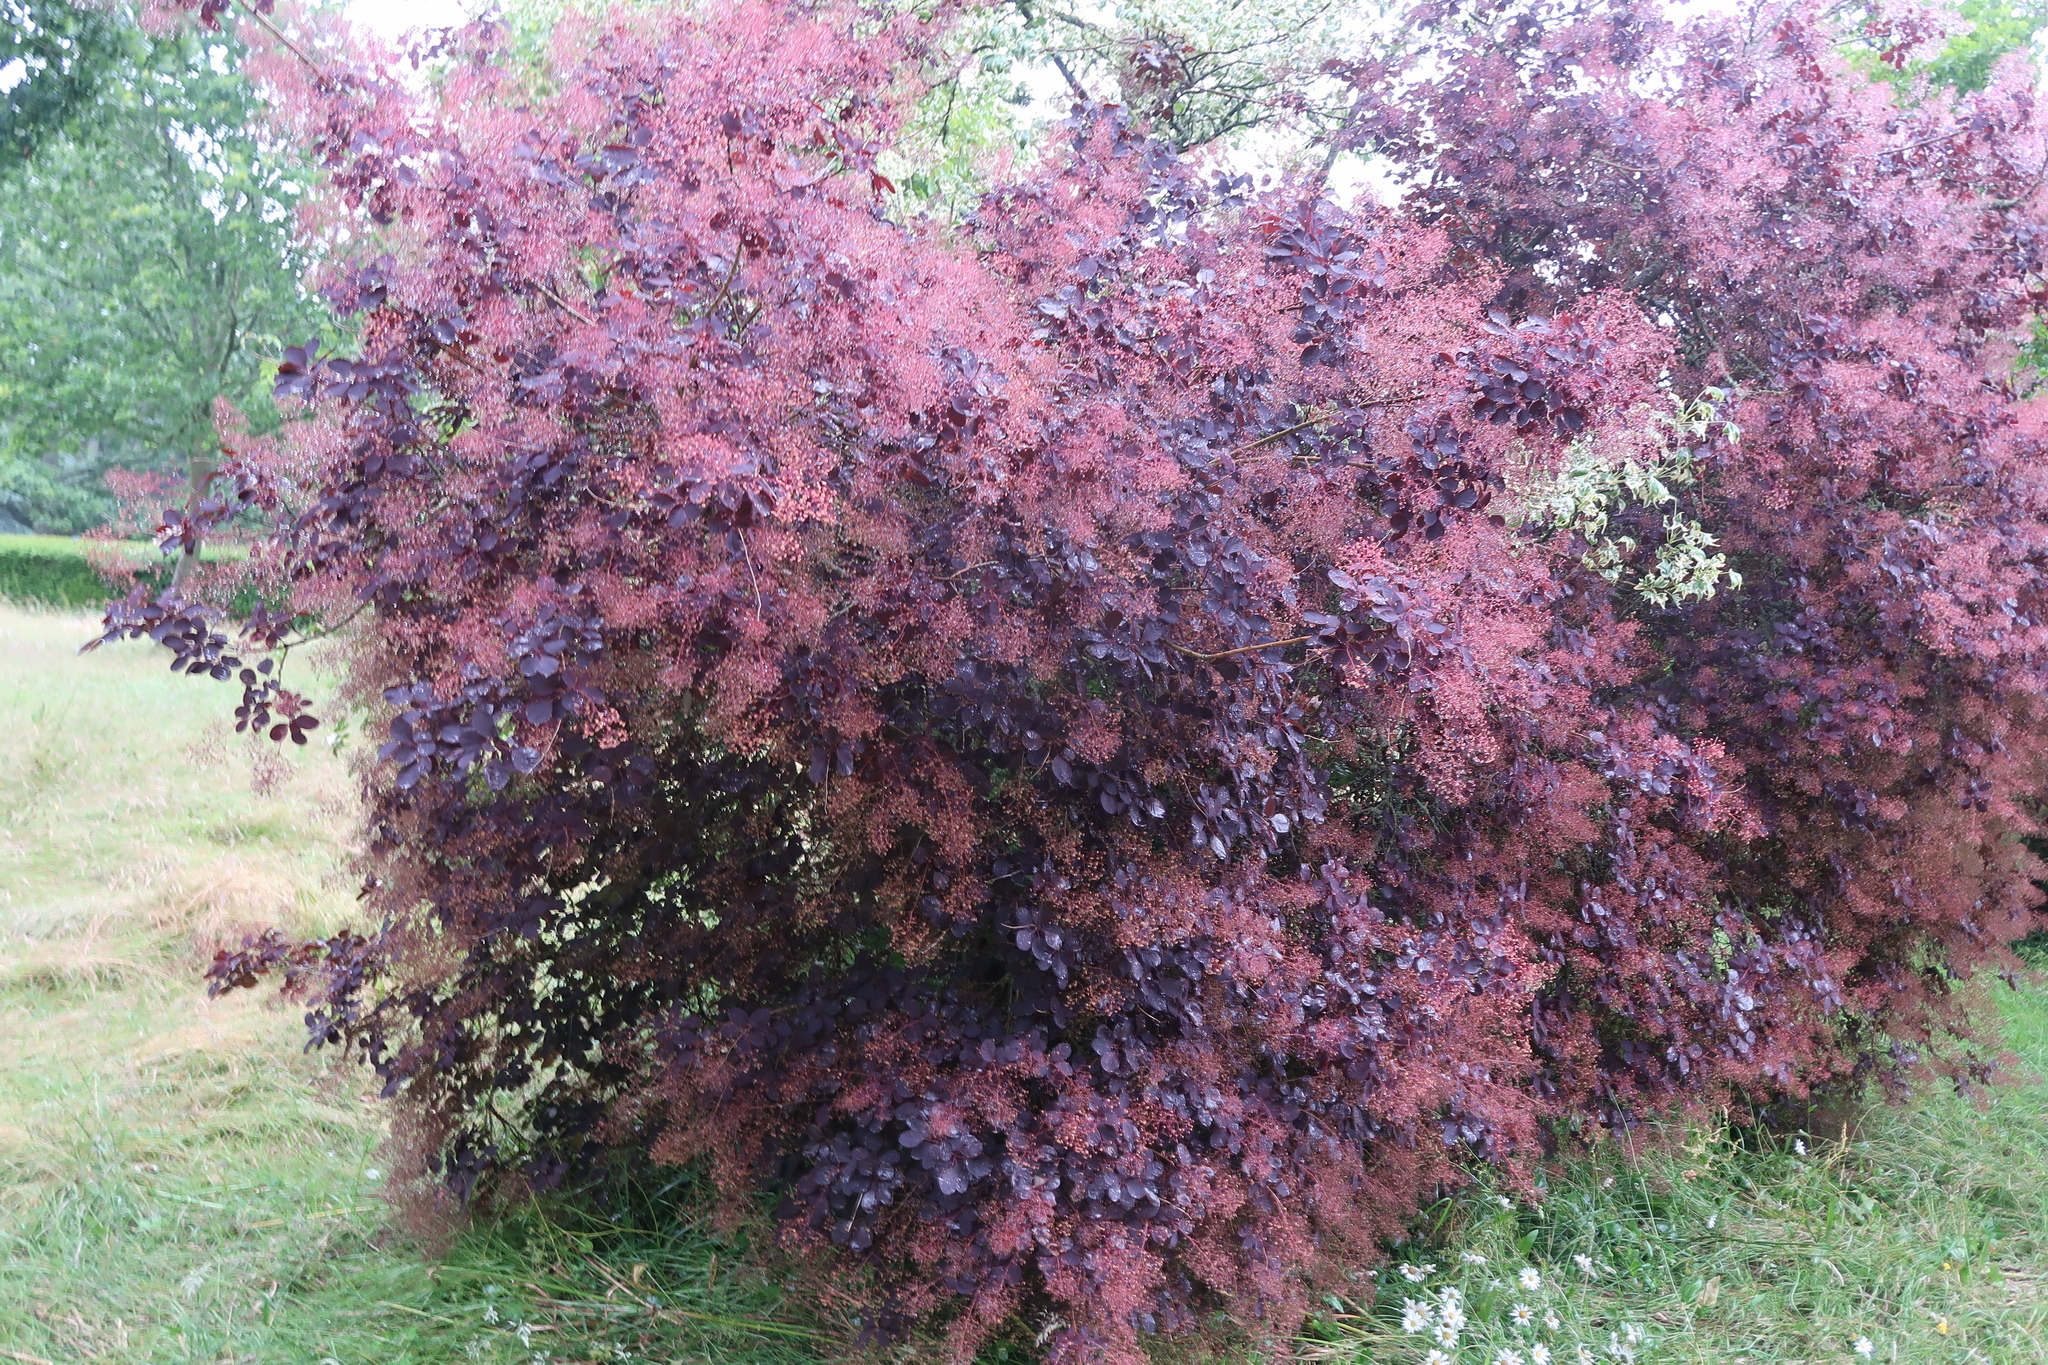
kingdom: Plantae
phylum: Tracheophyta
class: Magnoliopsida
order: Sapindales
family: Anacardiaceae
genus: Cotinus
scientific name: Cotinus coggygria
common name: Smoke-tree
